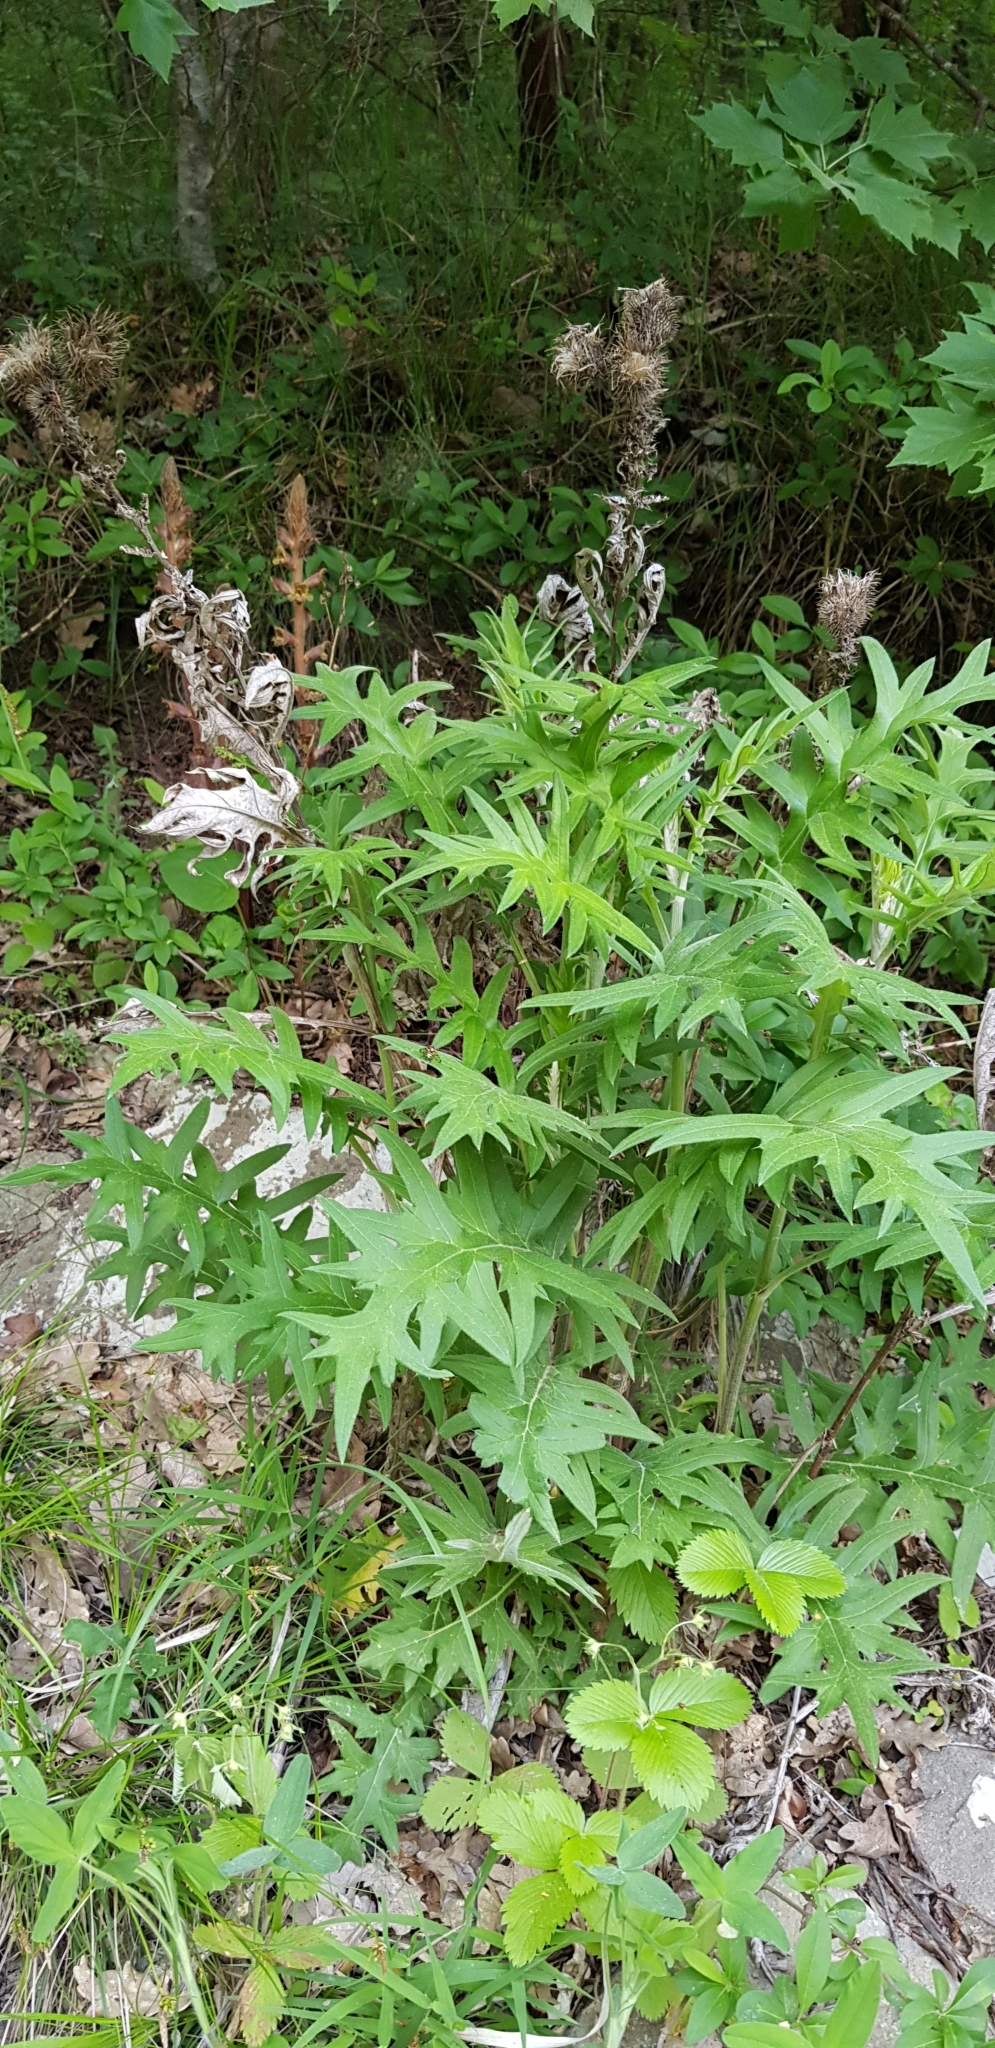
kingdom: Plantae
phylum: Tracheophyta
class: Magnoliopsida
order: Asterales
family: Asteraceae
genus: Cirsium
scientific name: Cirsium
